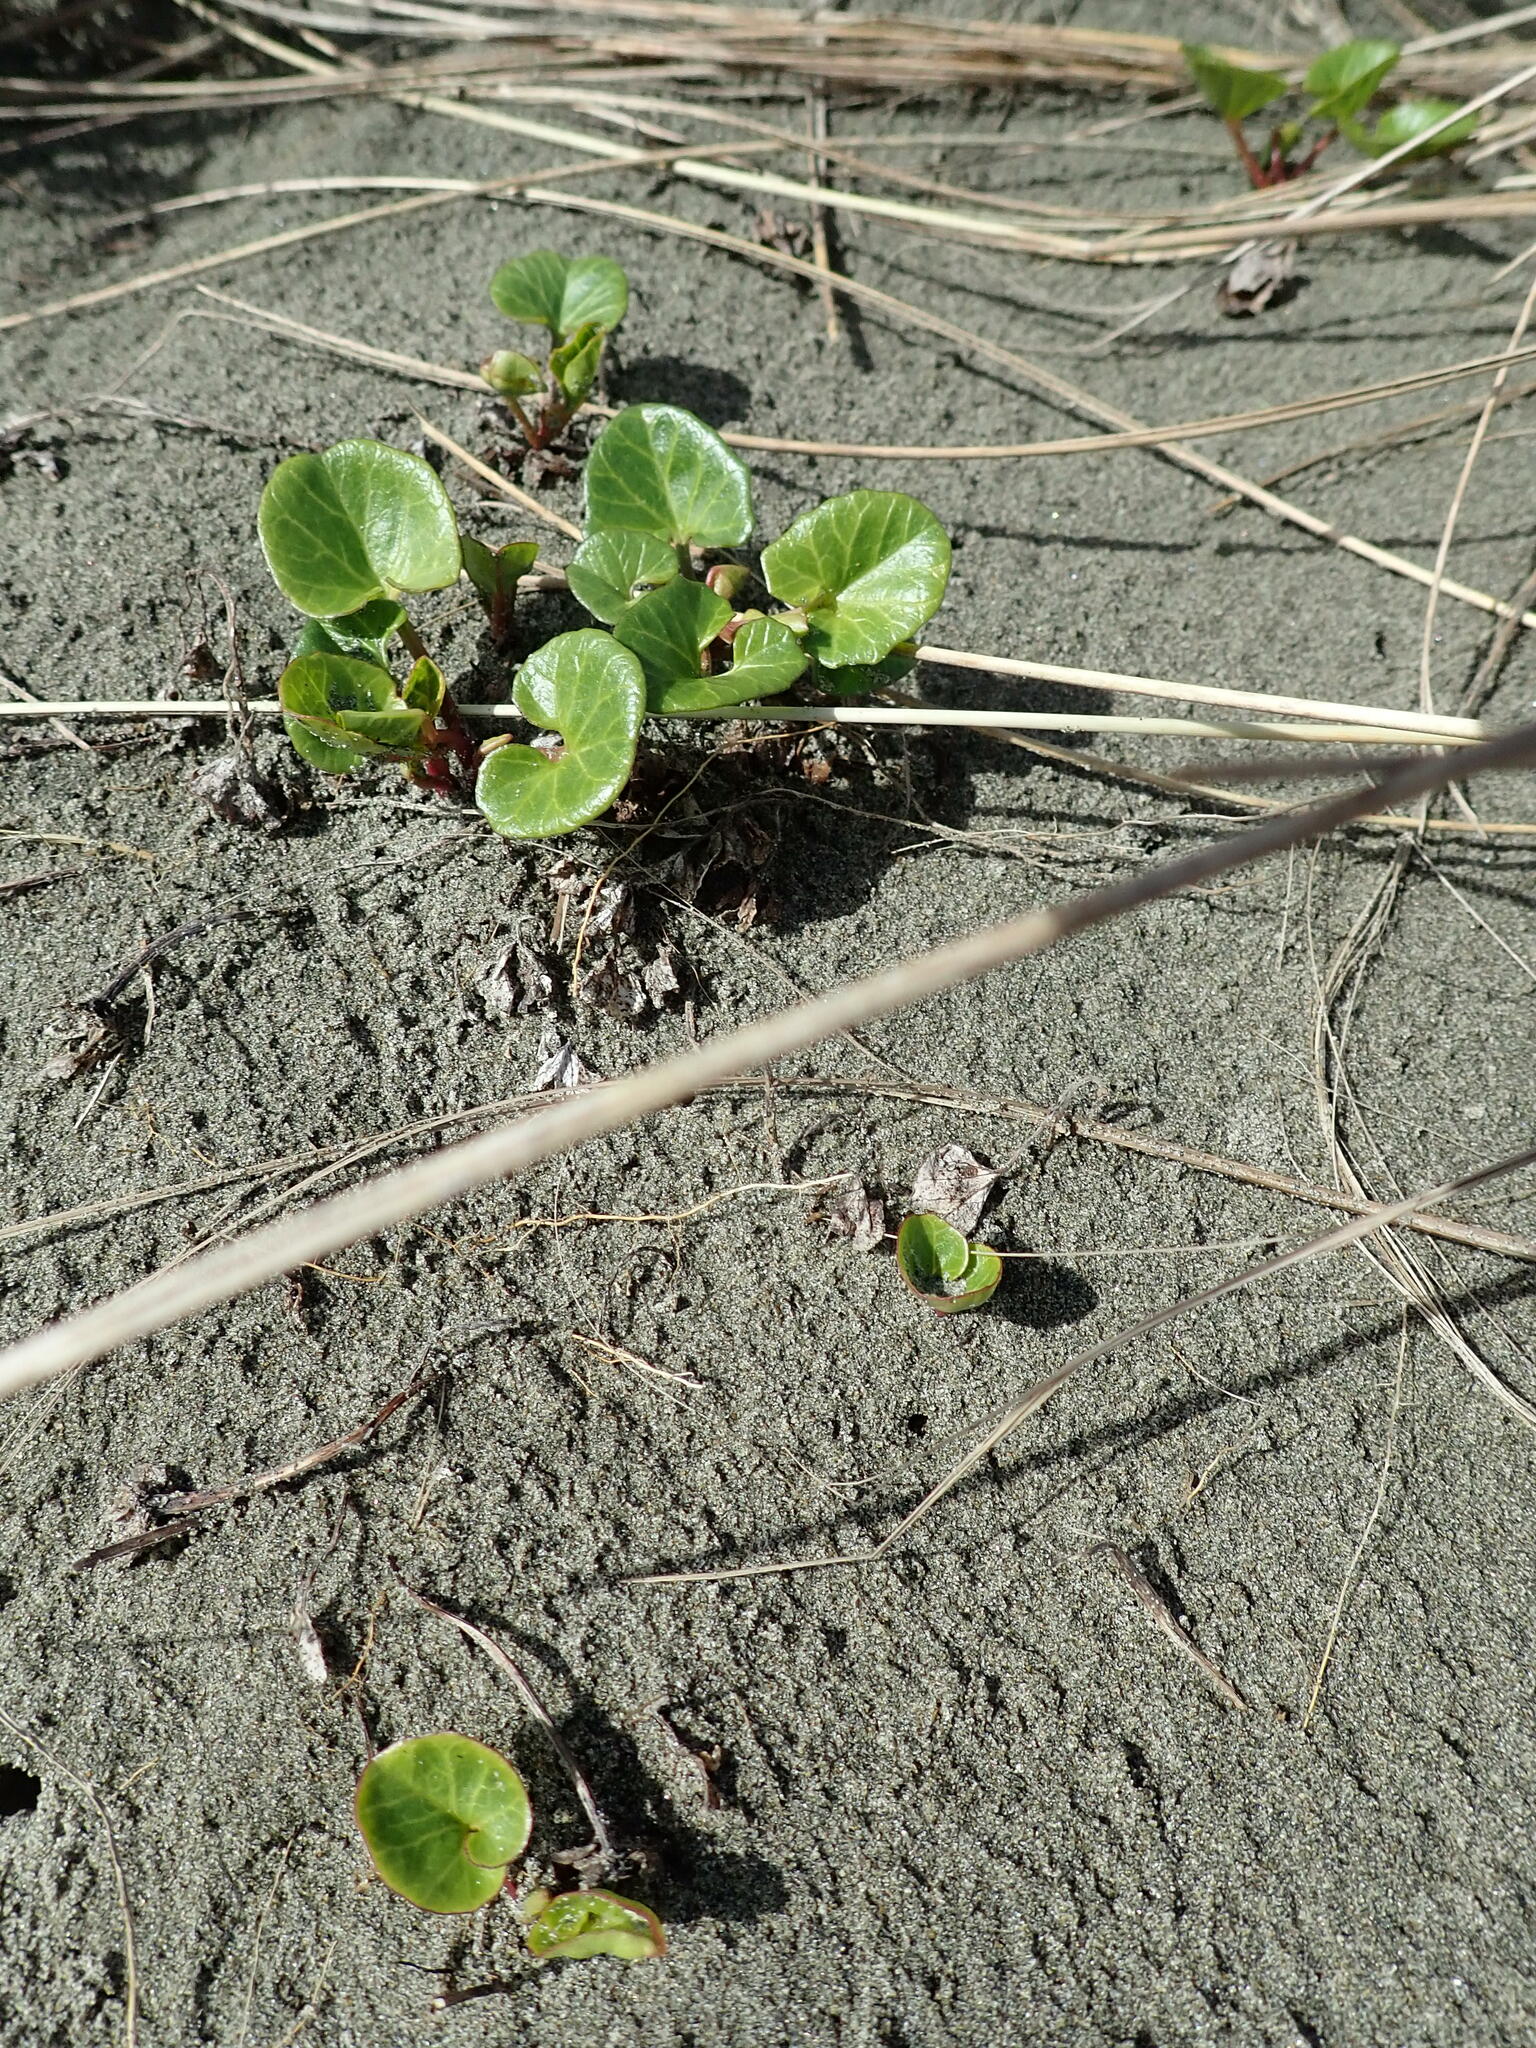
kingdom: Plantae
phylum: Tracheophyta
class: Magnoliopsida
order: Solanales
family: Convolvulaceae
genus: Calystegia
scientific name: Calystegia soldanella
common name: Sea bindweed
